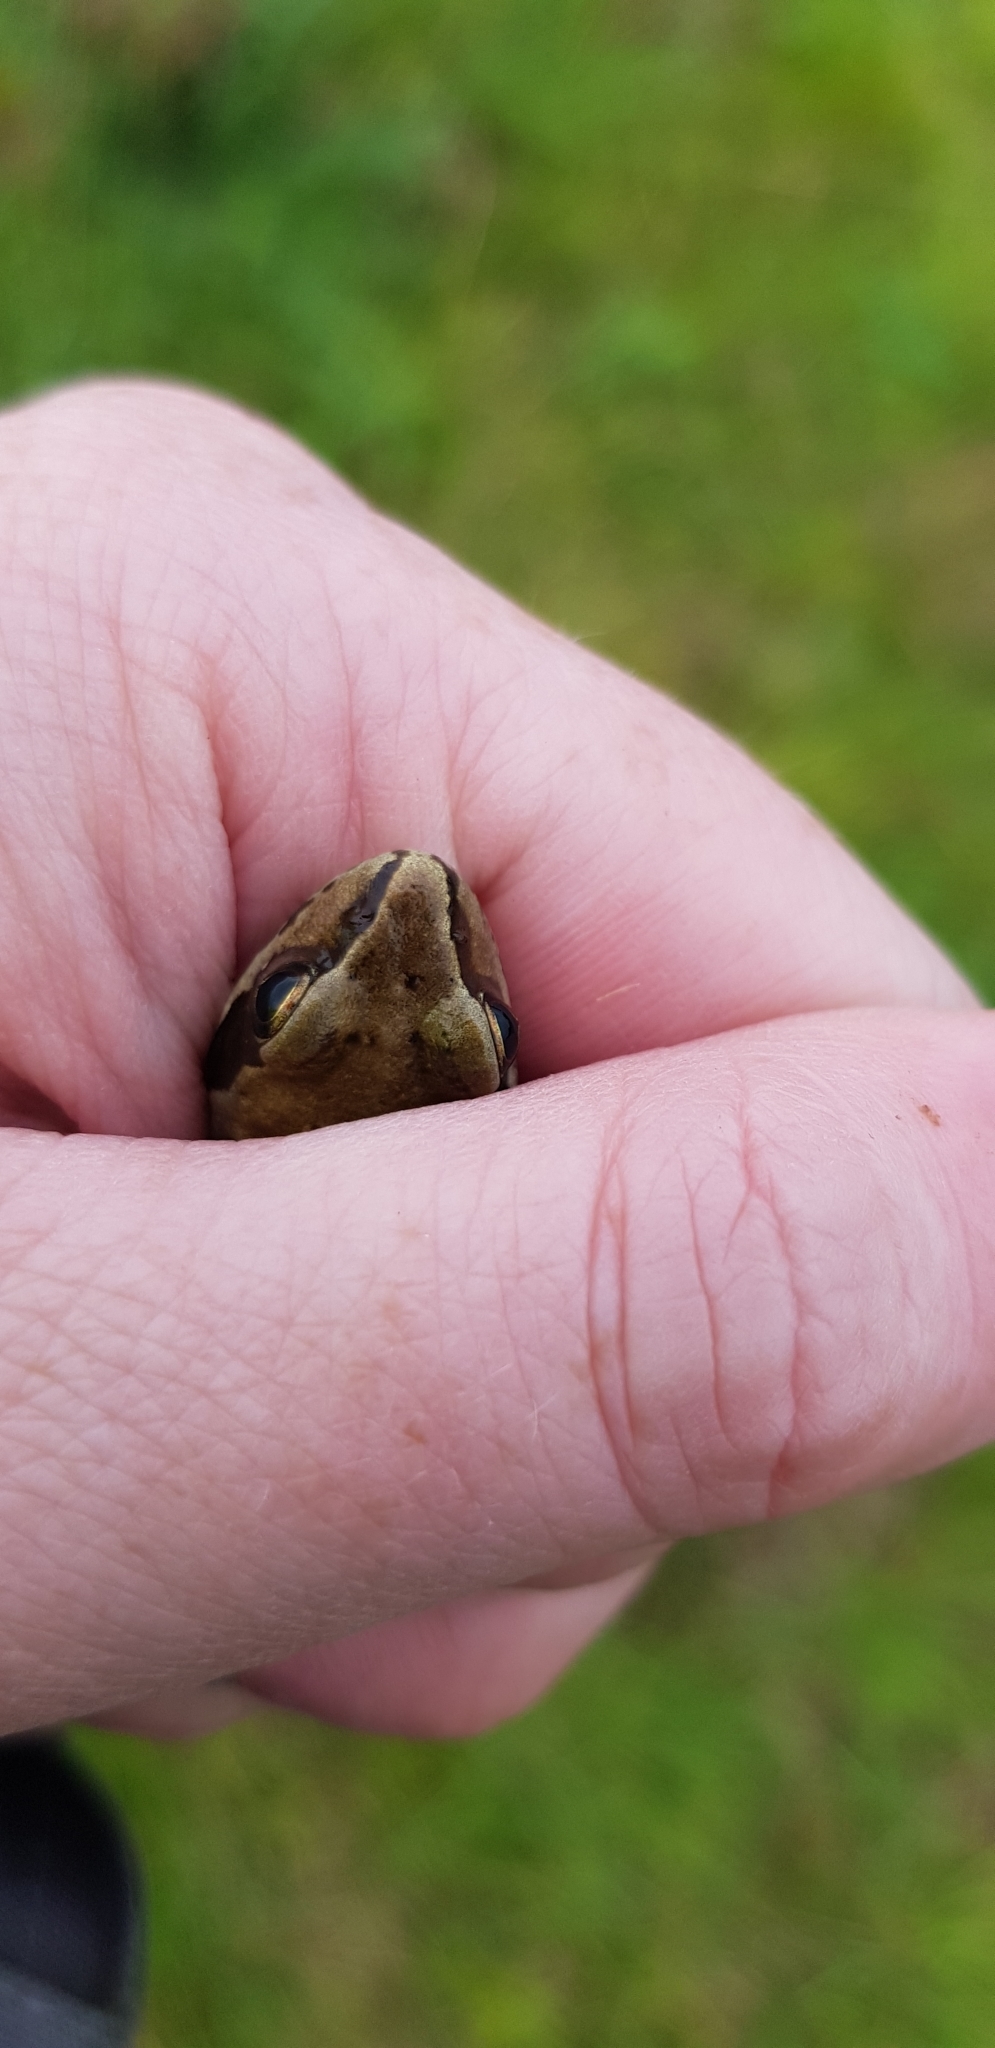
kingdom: Animalia
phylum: Chordata
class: Amphibia
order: Anura
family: Ranidae
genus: Rana
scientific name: Rana temporaria
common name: Common frog
